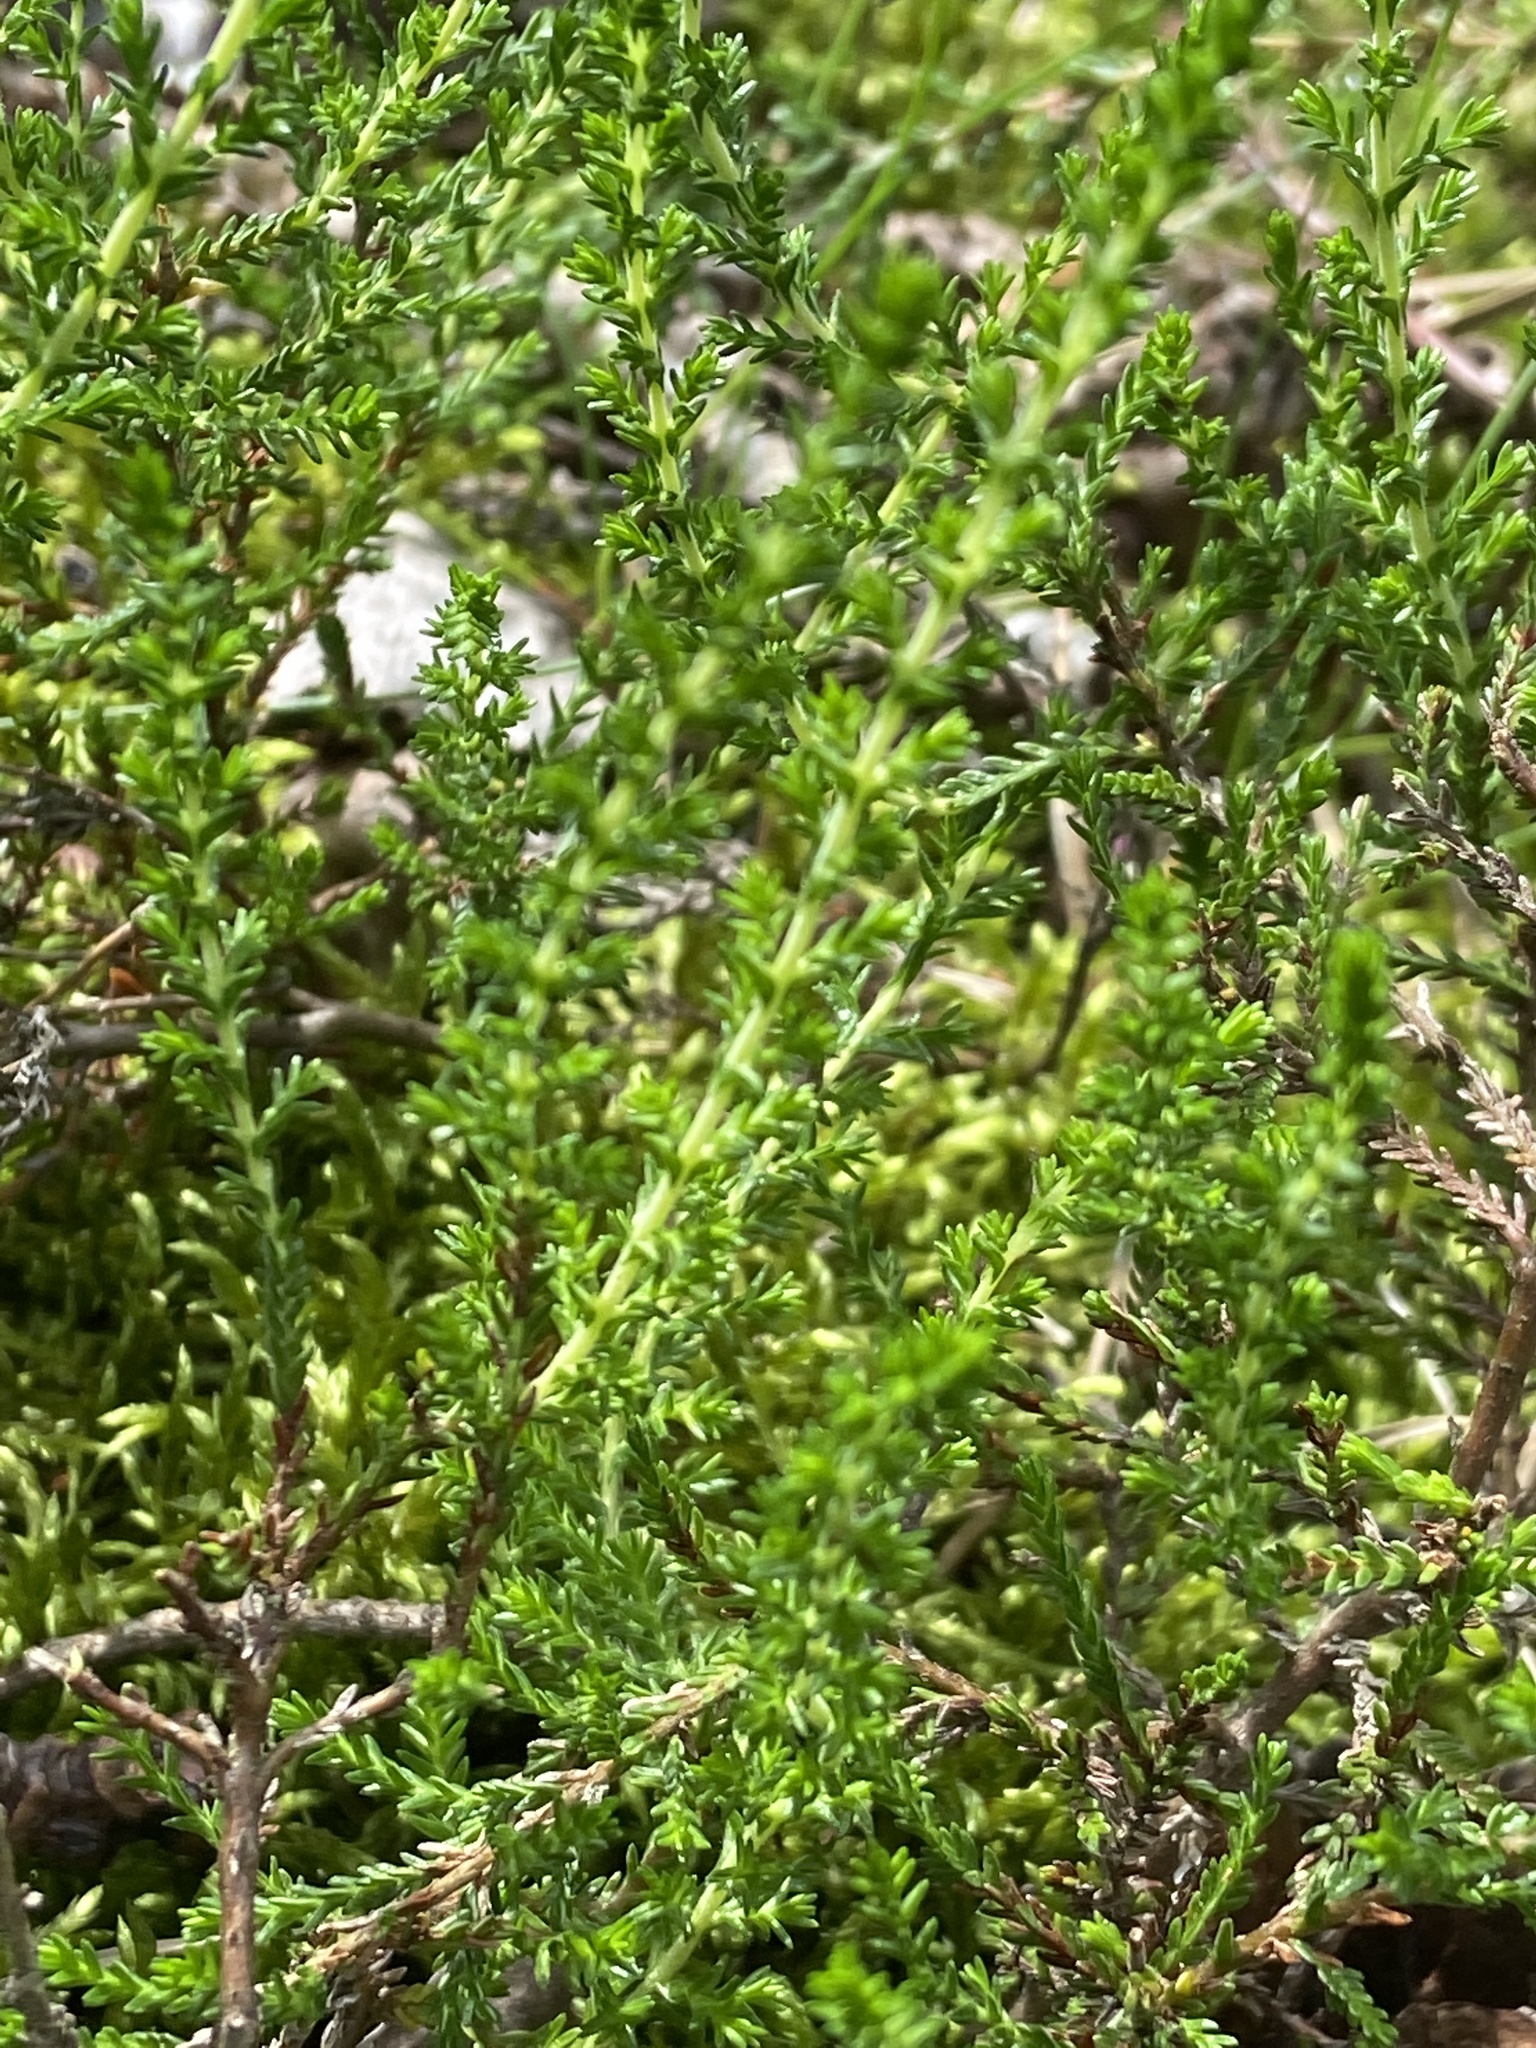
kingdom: Plantae
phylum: Tracheophyta
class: Magnoliopsida
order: Ericales
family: Ericaceae
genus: Calluna
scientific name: Calluna vulgaris
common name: Heather
